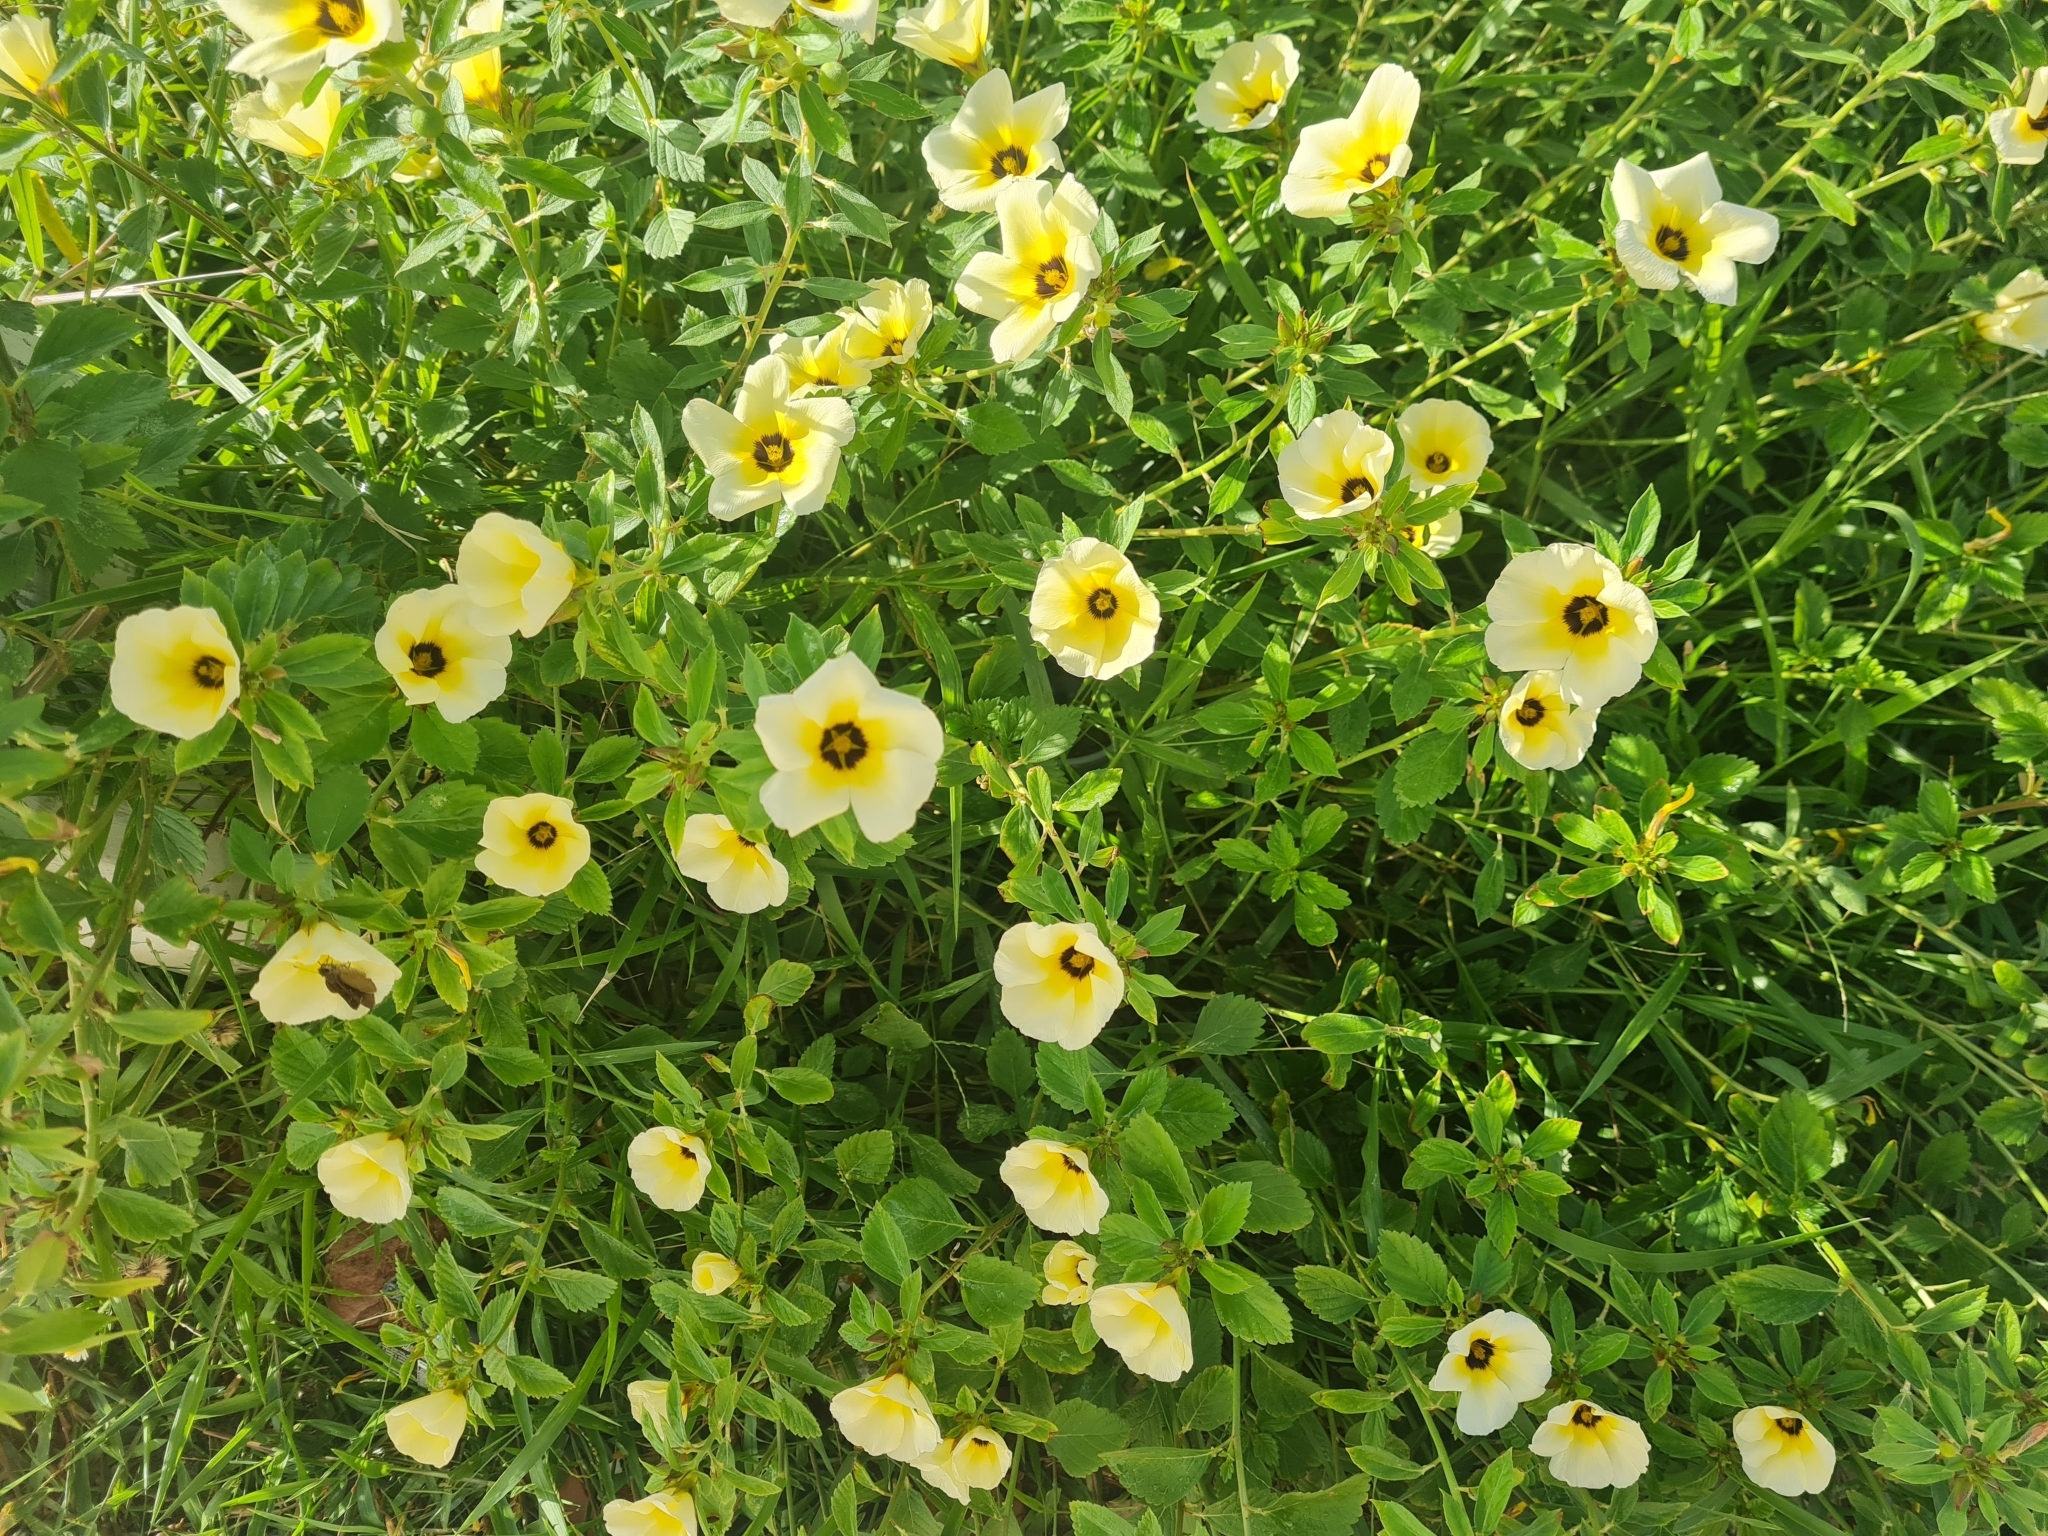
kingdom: Plantae
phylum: Tracheophyta
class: Magnoliopsida
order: Malpighiales
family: Turneraceae
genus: Turnera
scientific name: Turnera subulata
